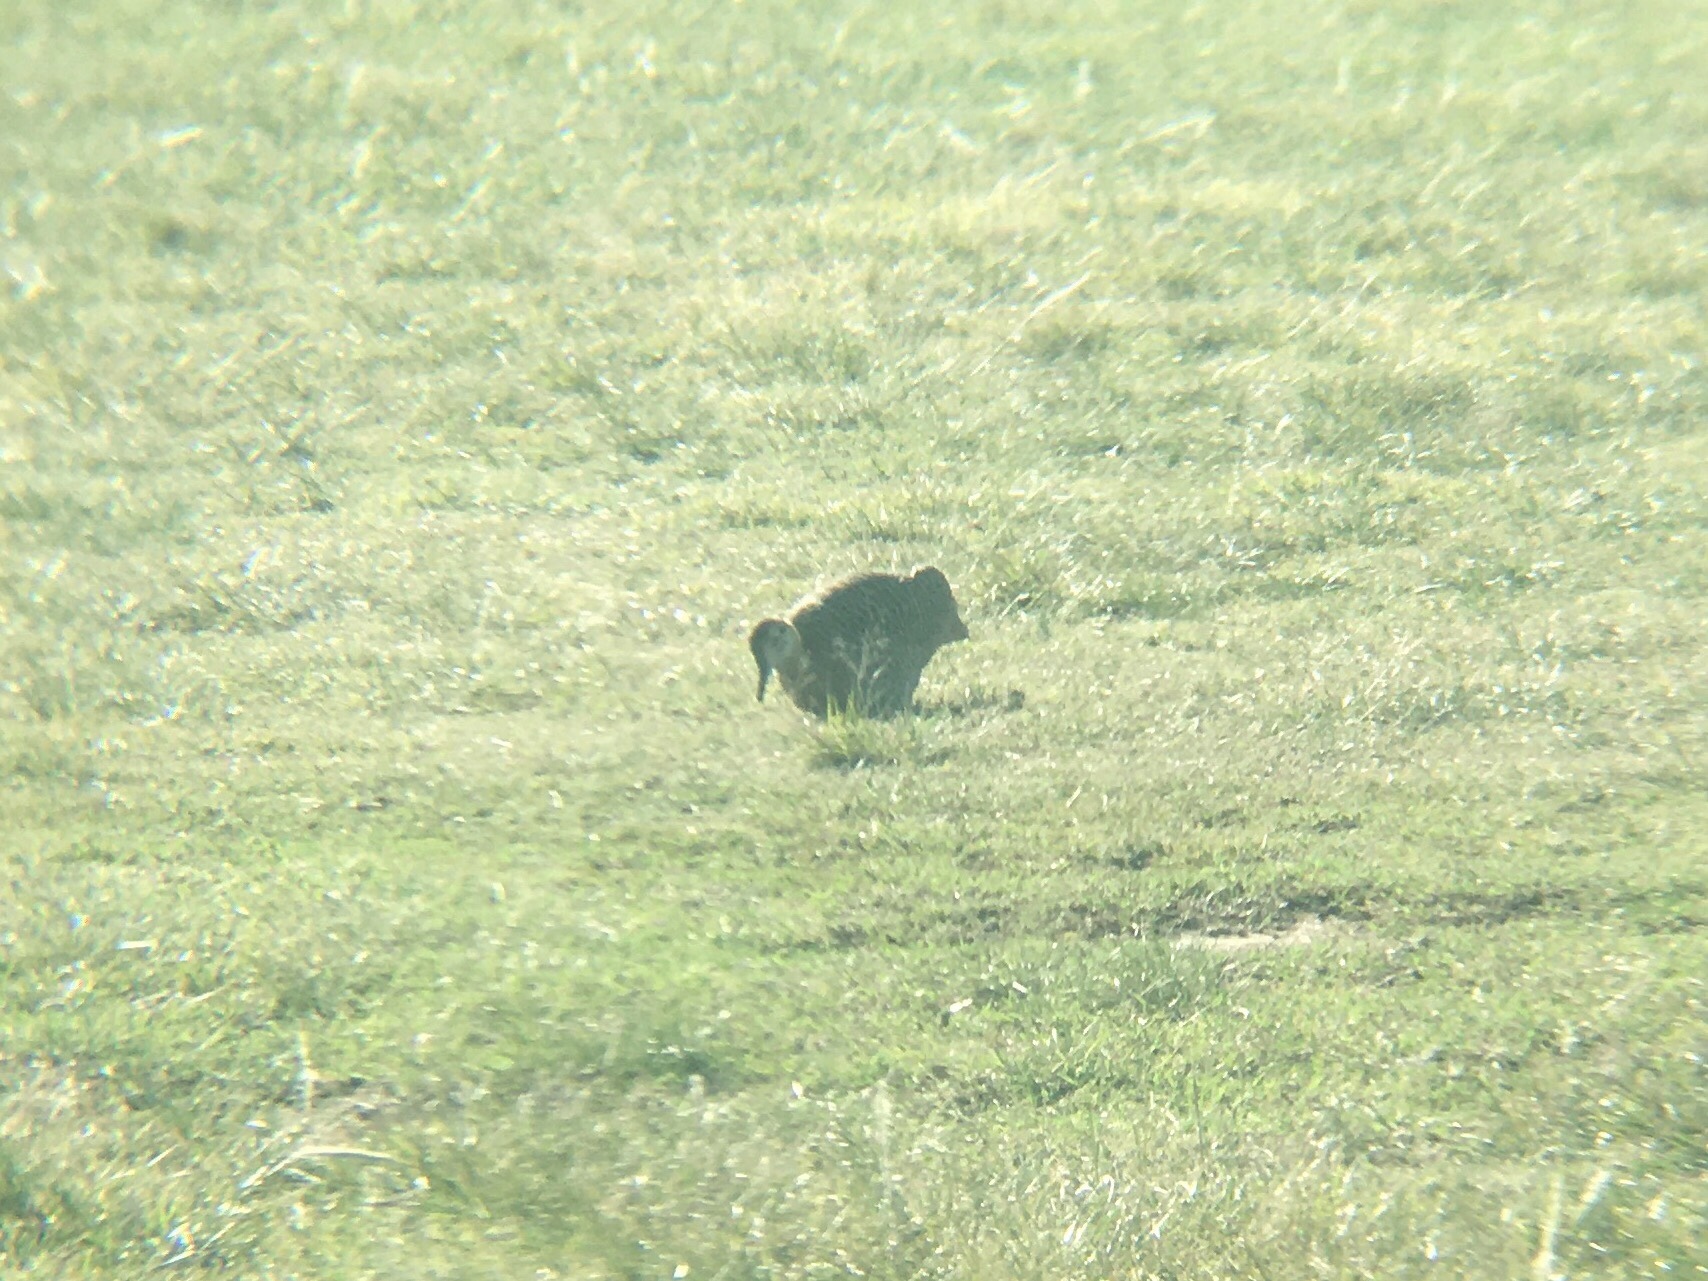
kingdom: Animalia
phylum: Chordata
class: Aves
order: Tinamiformes
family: Tinamidae
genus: Rhynchotus
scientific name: Rhynchotus rufescens
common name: Red-winged tinamou
